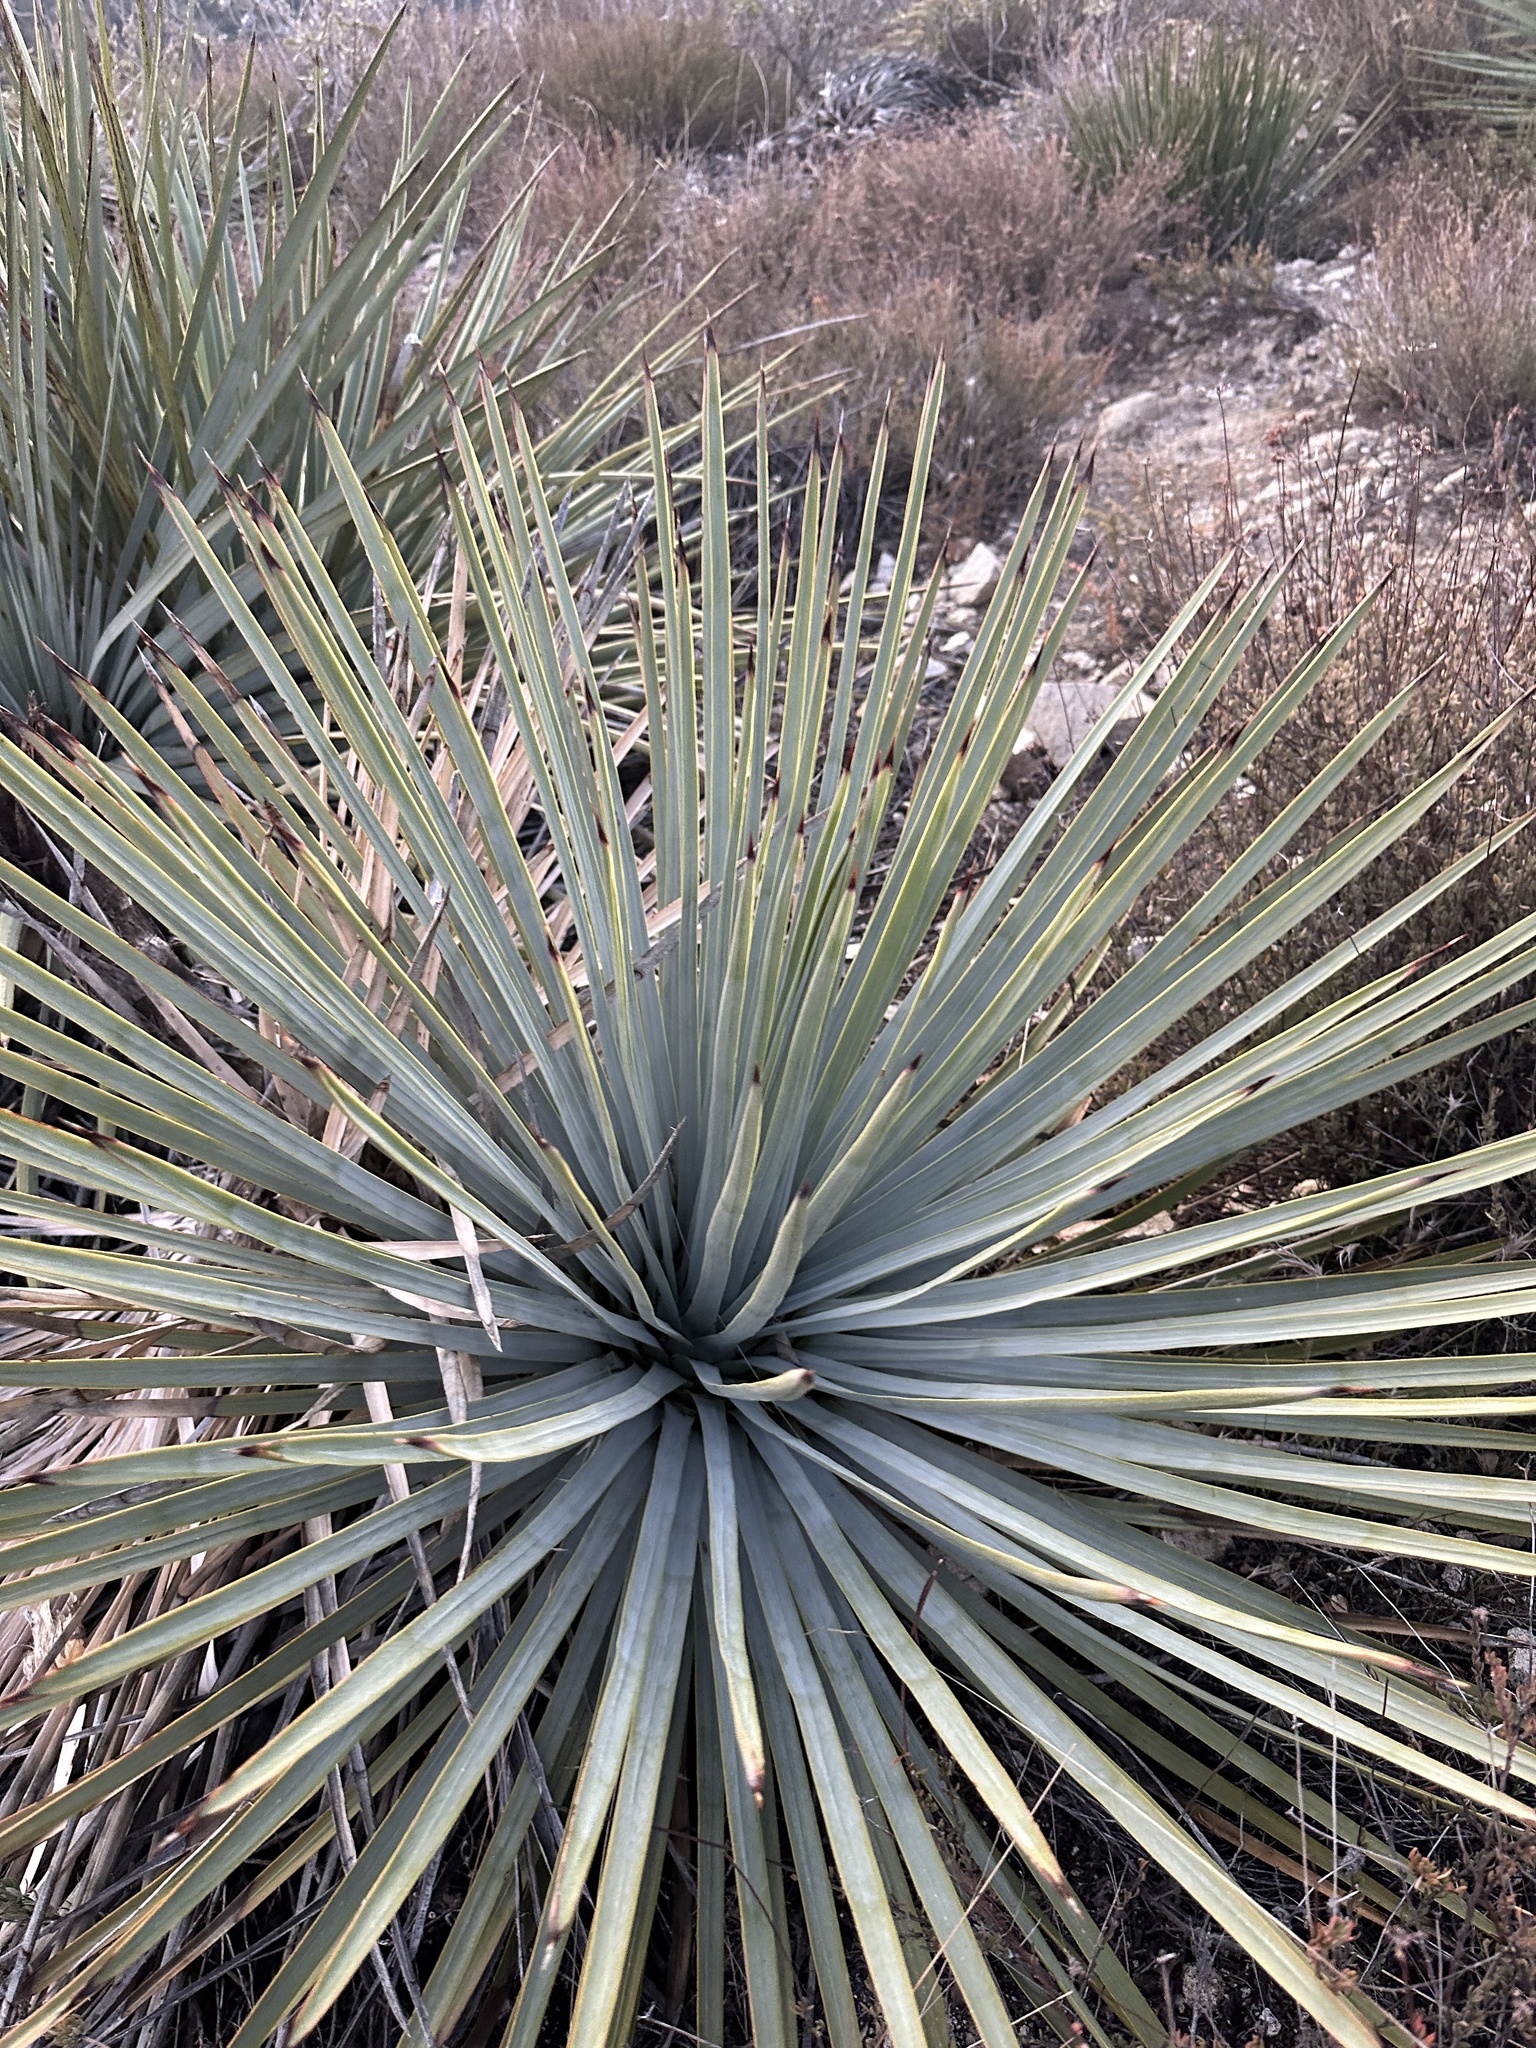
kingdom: Plantae
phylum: Tracheophyta
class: Liliopsida
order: Asparagales
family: Asparagaceae
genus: Hesperoyucca
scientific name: Hesperoyucca whipplei
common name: Our lord's-candle
